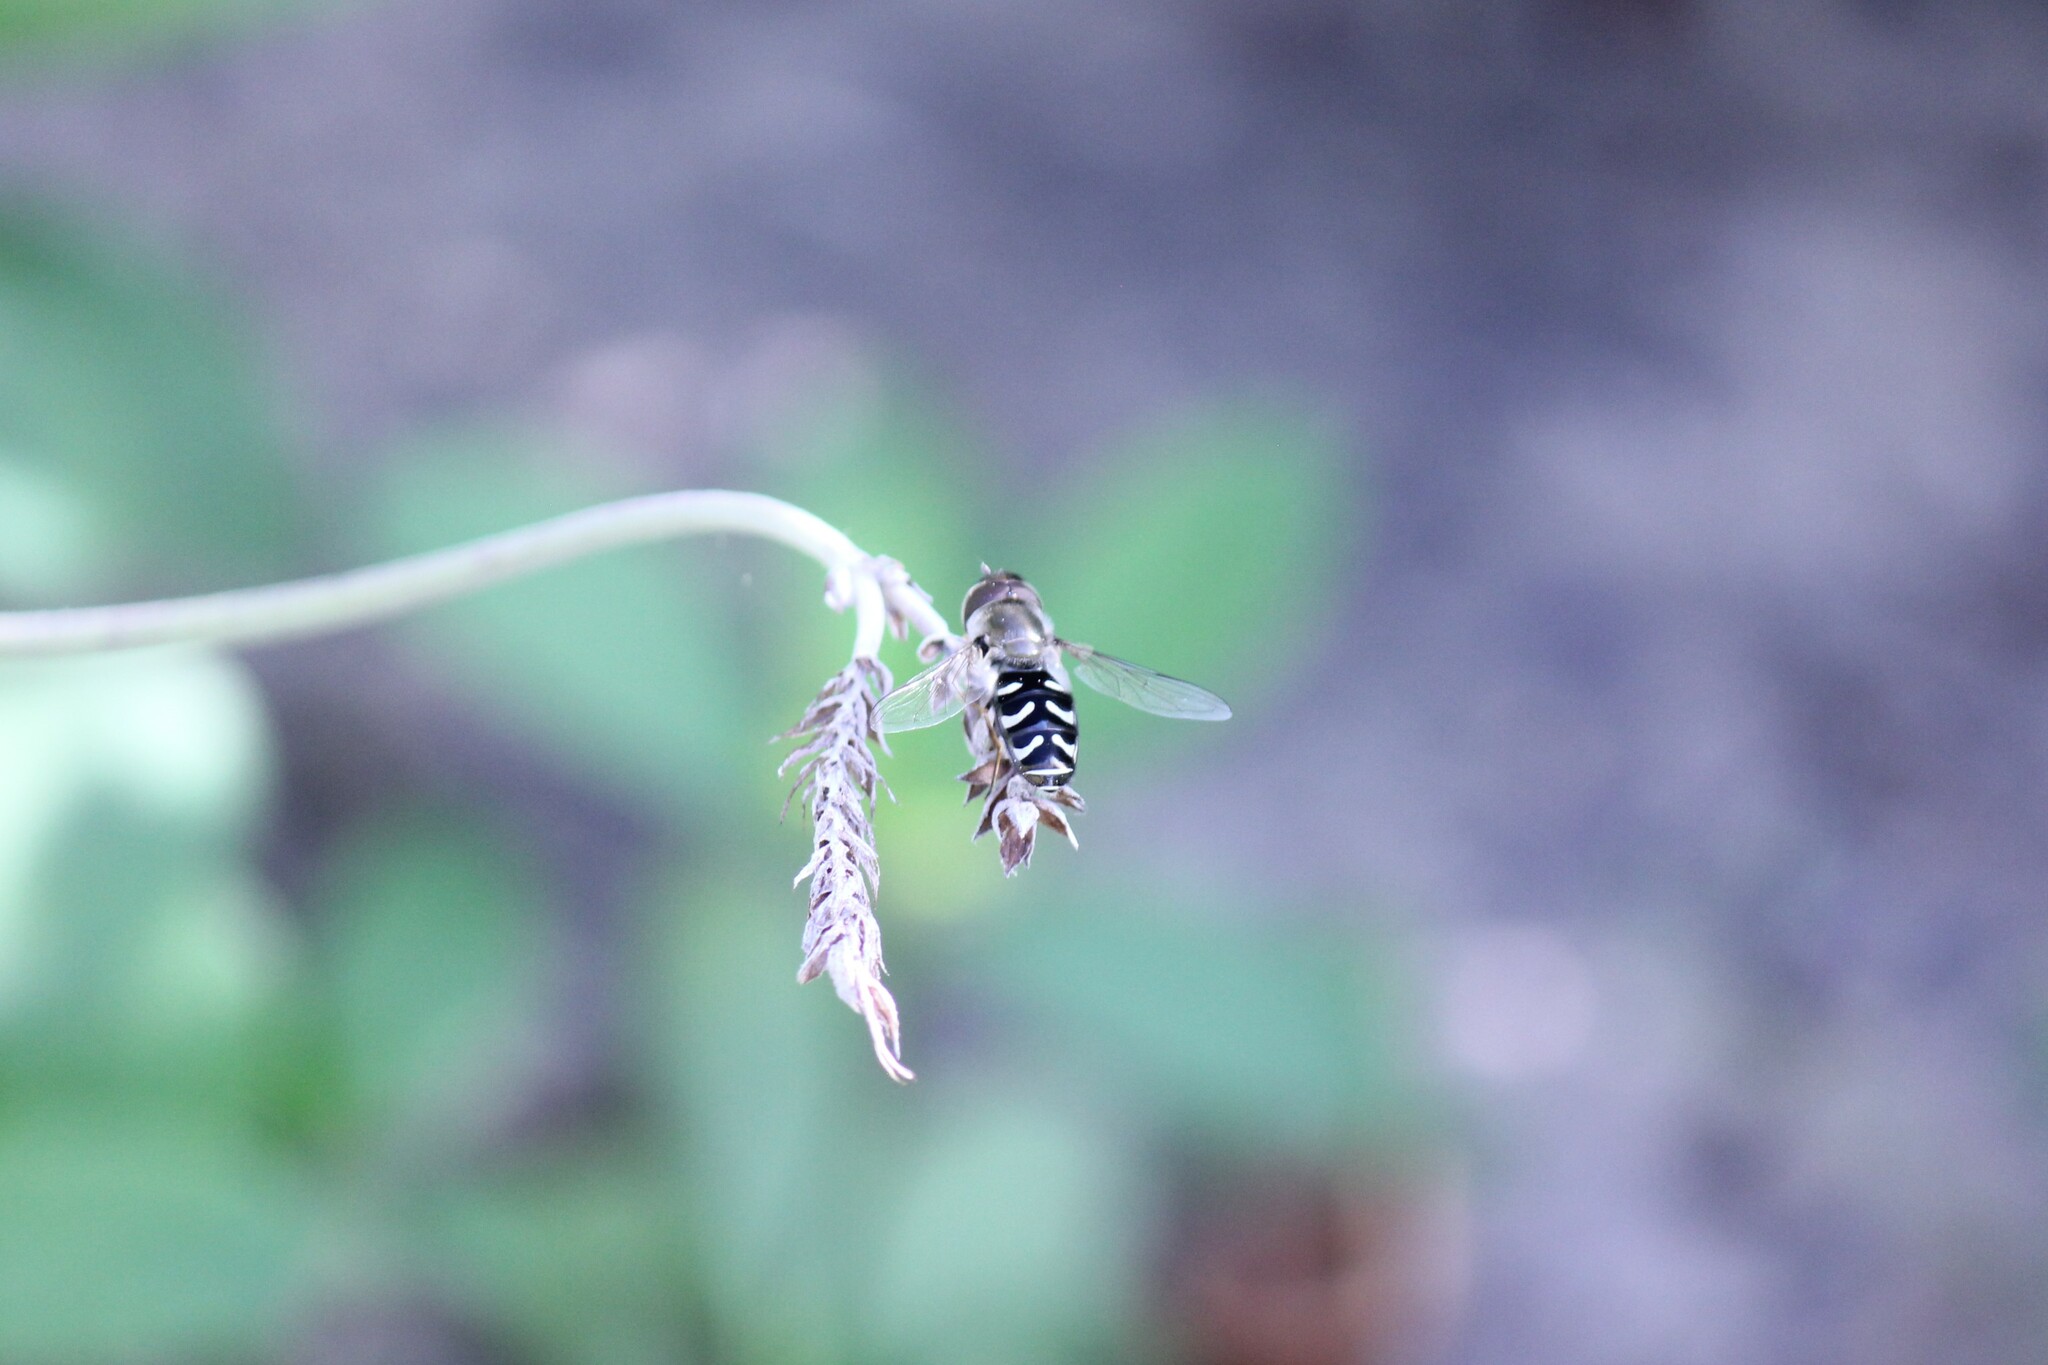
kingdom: Animalia
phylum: Arthropoda
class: Insecta
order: Diptera
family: Syrphidae
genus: Scaeva
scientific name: Scaeva affinis
